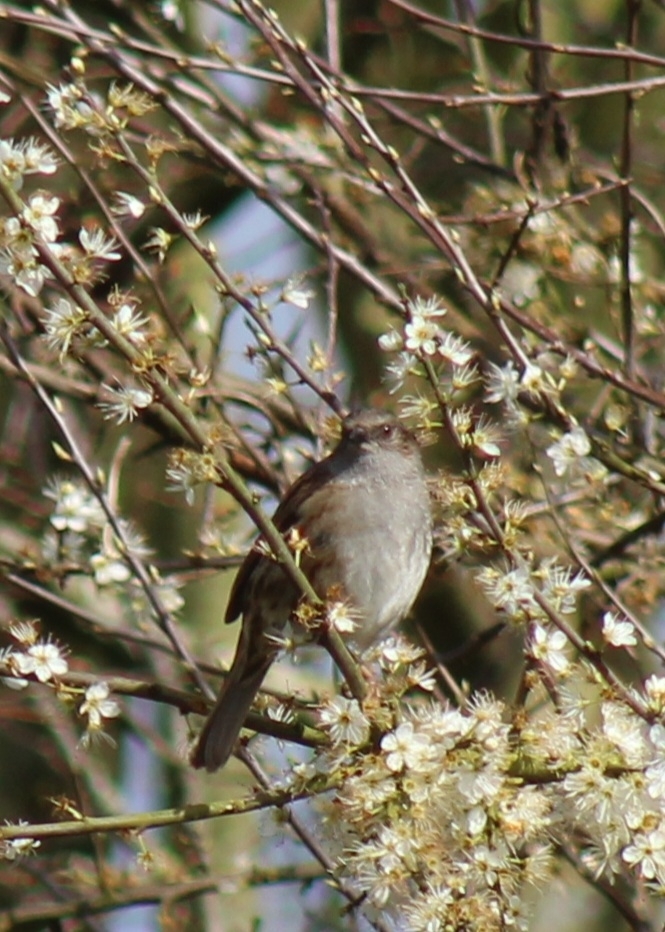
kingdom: Animalia
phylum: Chordata
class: Aves
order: Passeriformes
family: Prunellidae
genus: Prunella
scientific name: Prunella modularis
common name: Dunnock
